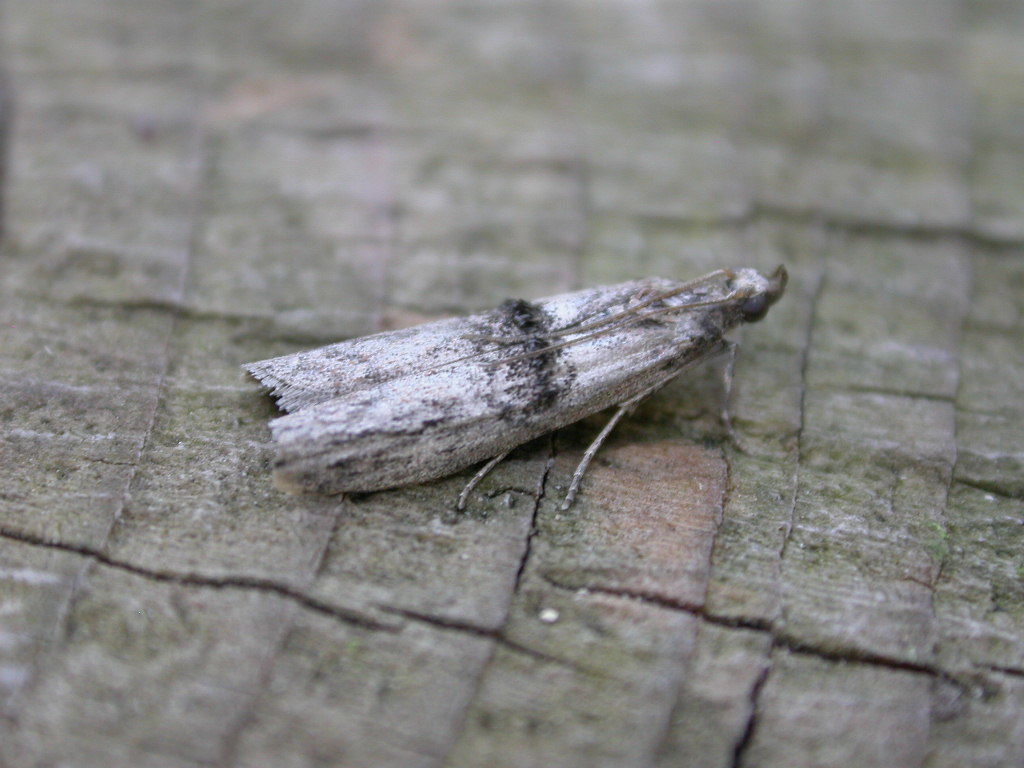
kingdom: Animalia
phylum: Arthropoda
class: Insecta
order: Lepidoptera
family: Pyralidae
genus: Nephopterix
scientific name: Nephopterix angustella
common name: Spindle knot-horn
